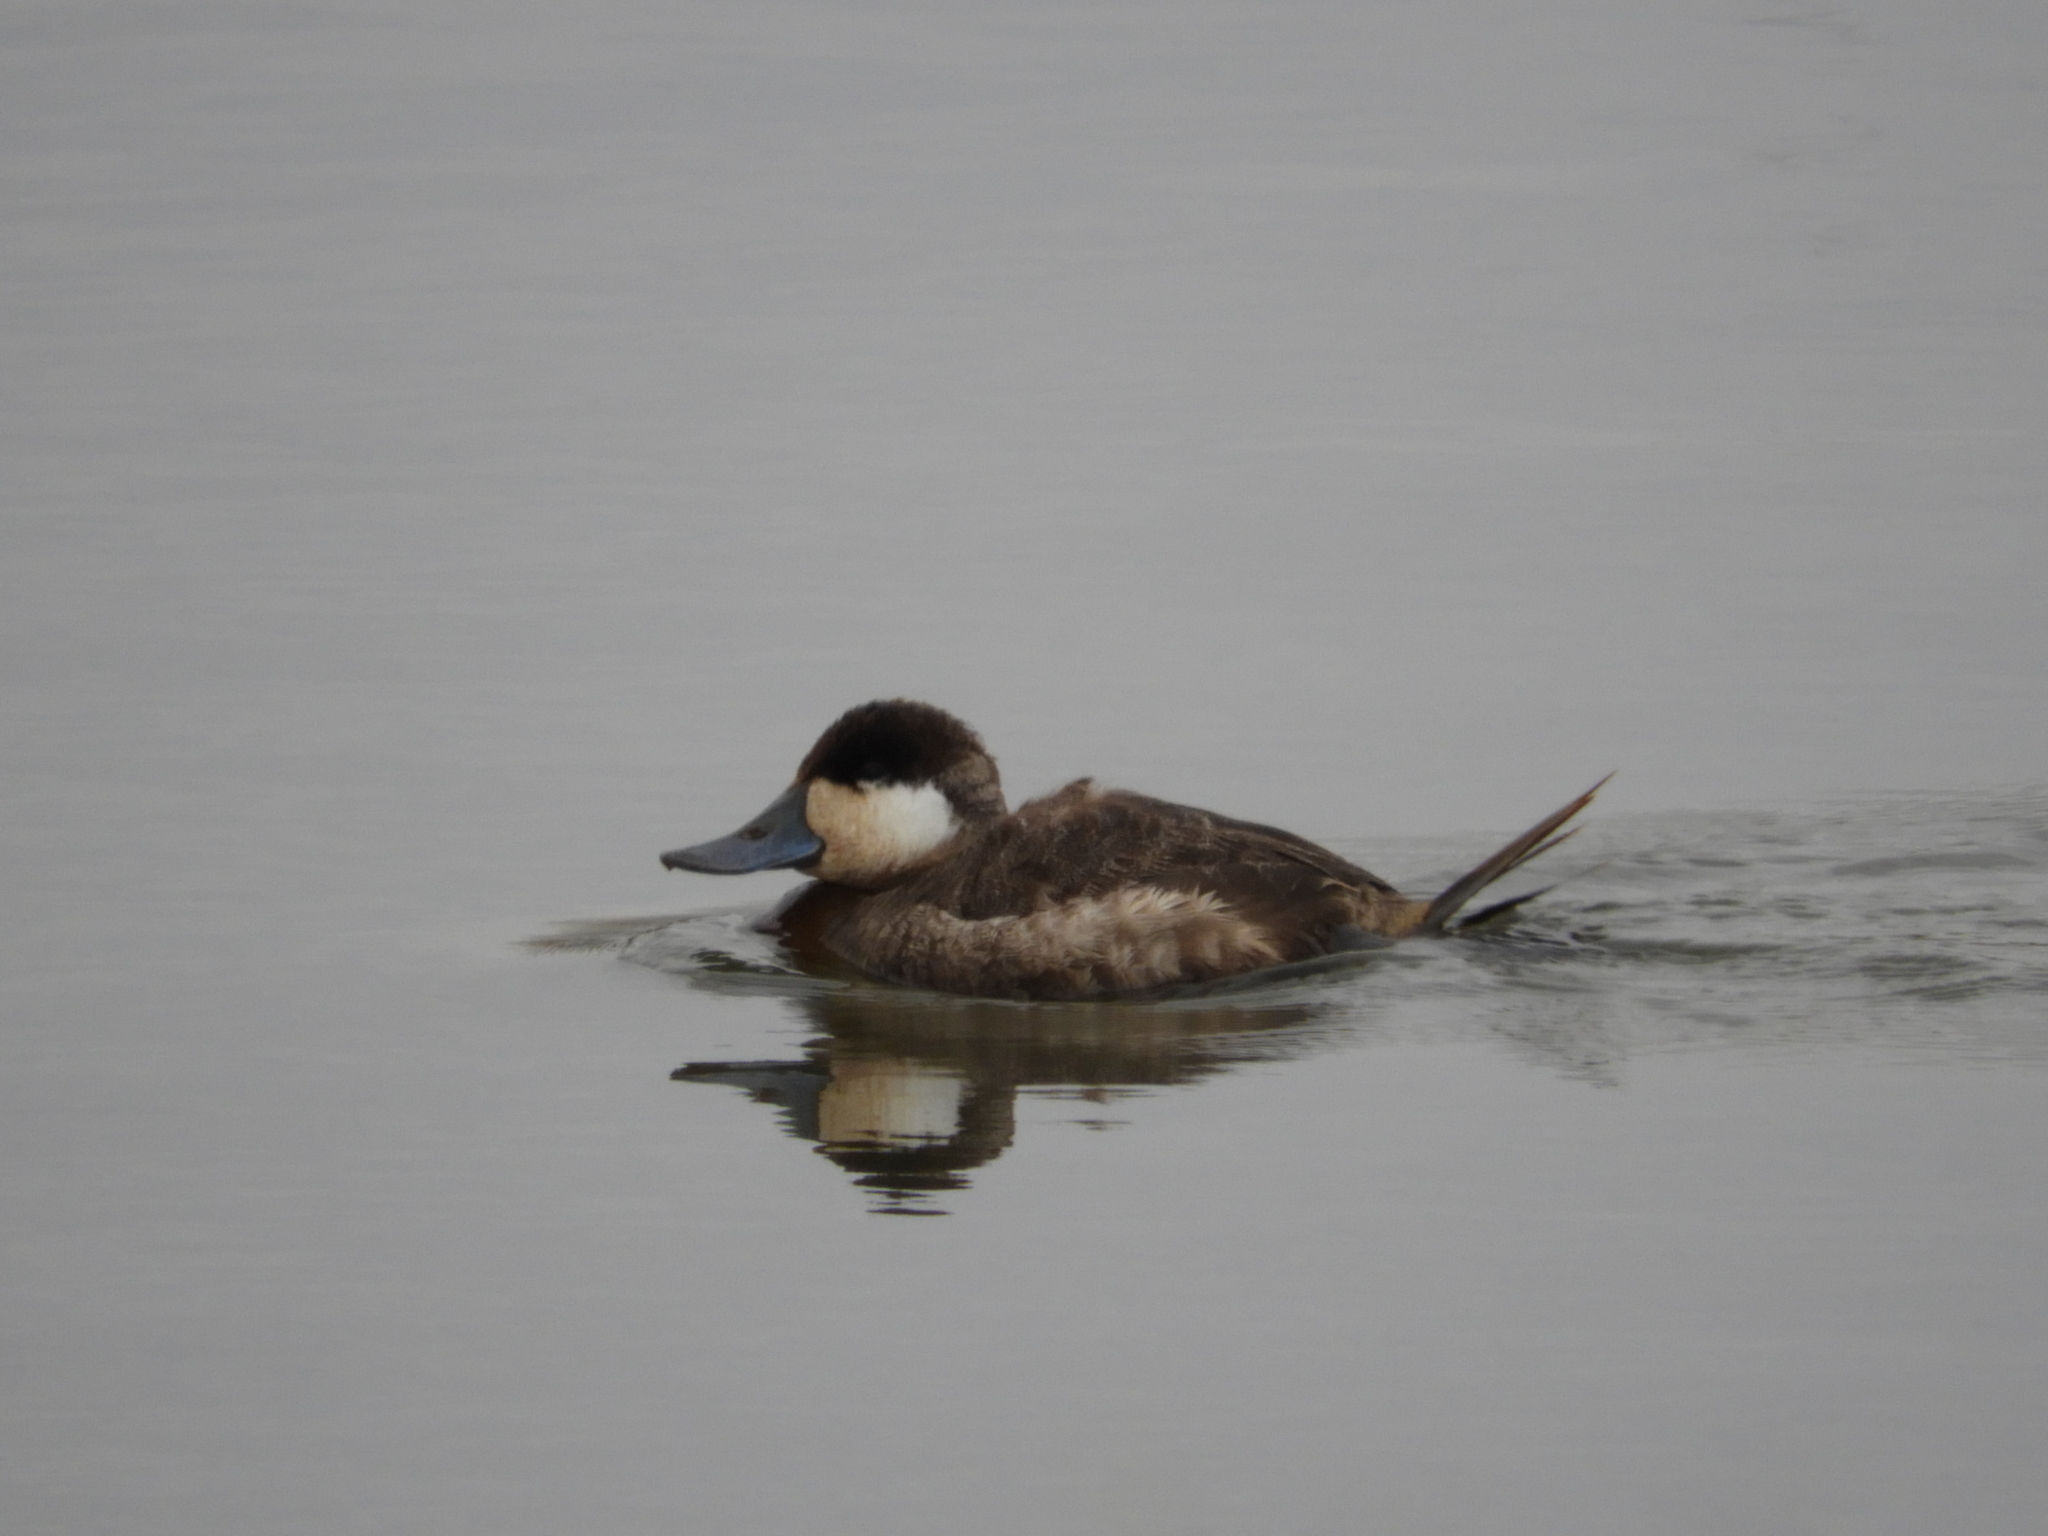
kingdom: Animalia
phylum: Chordata
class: Aves
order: Anseriformes
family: Anatidae
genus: Oxyura
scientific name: Oxyura jamaicensis
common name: Ruddy duck
